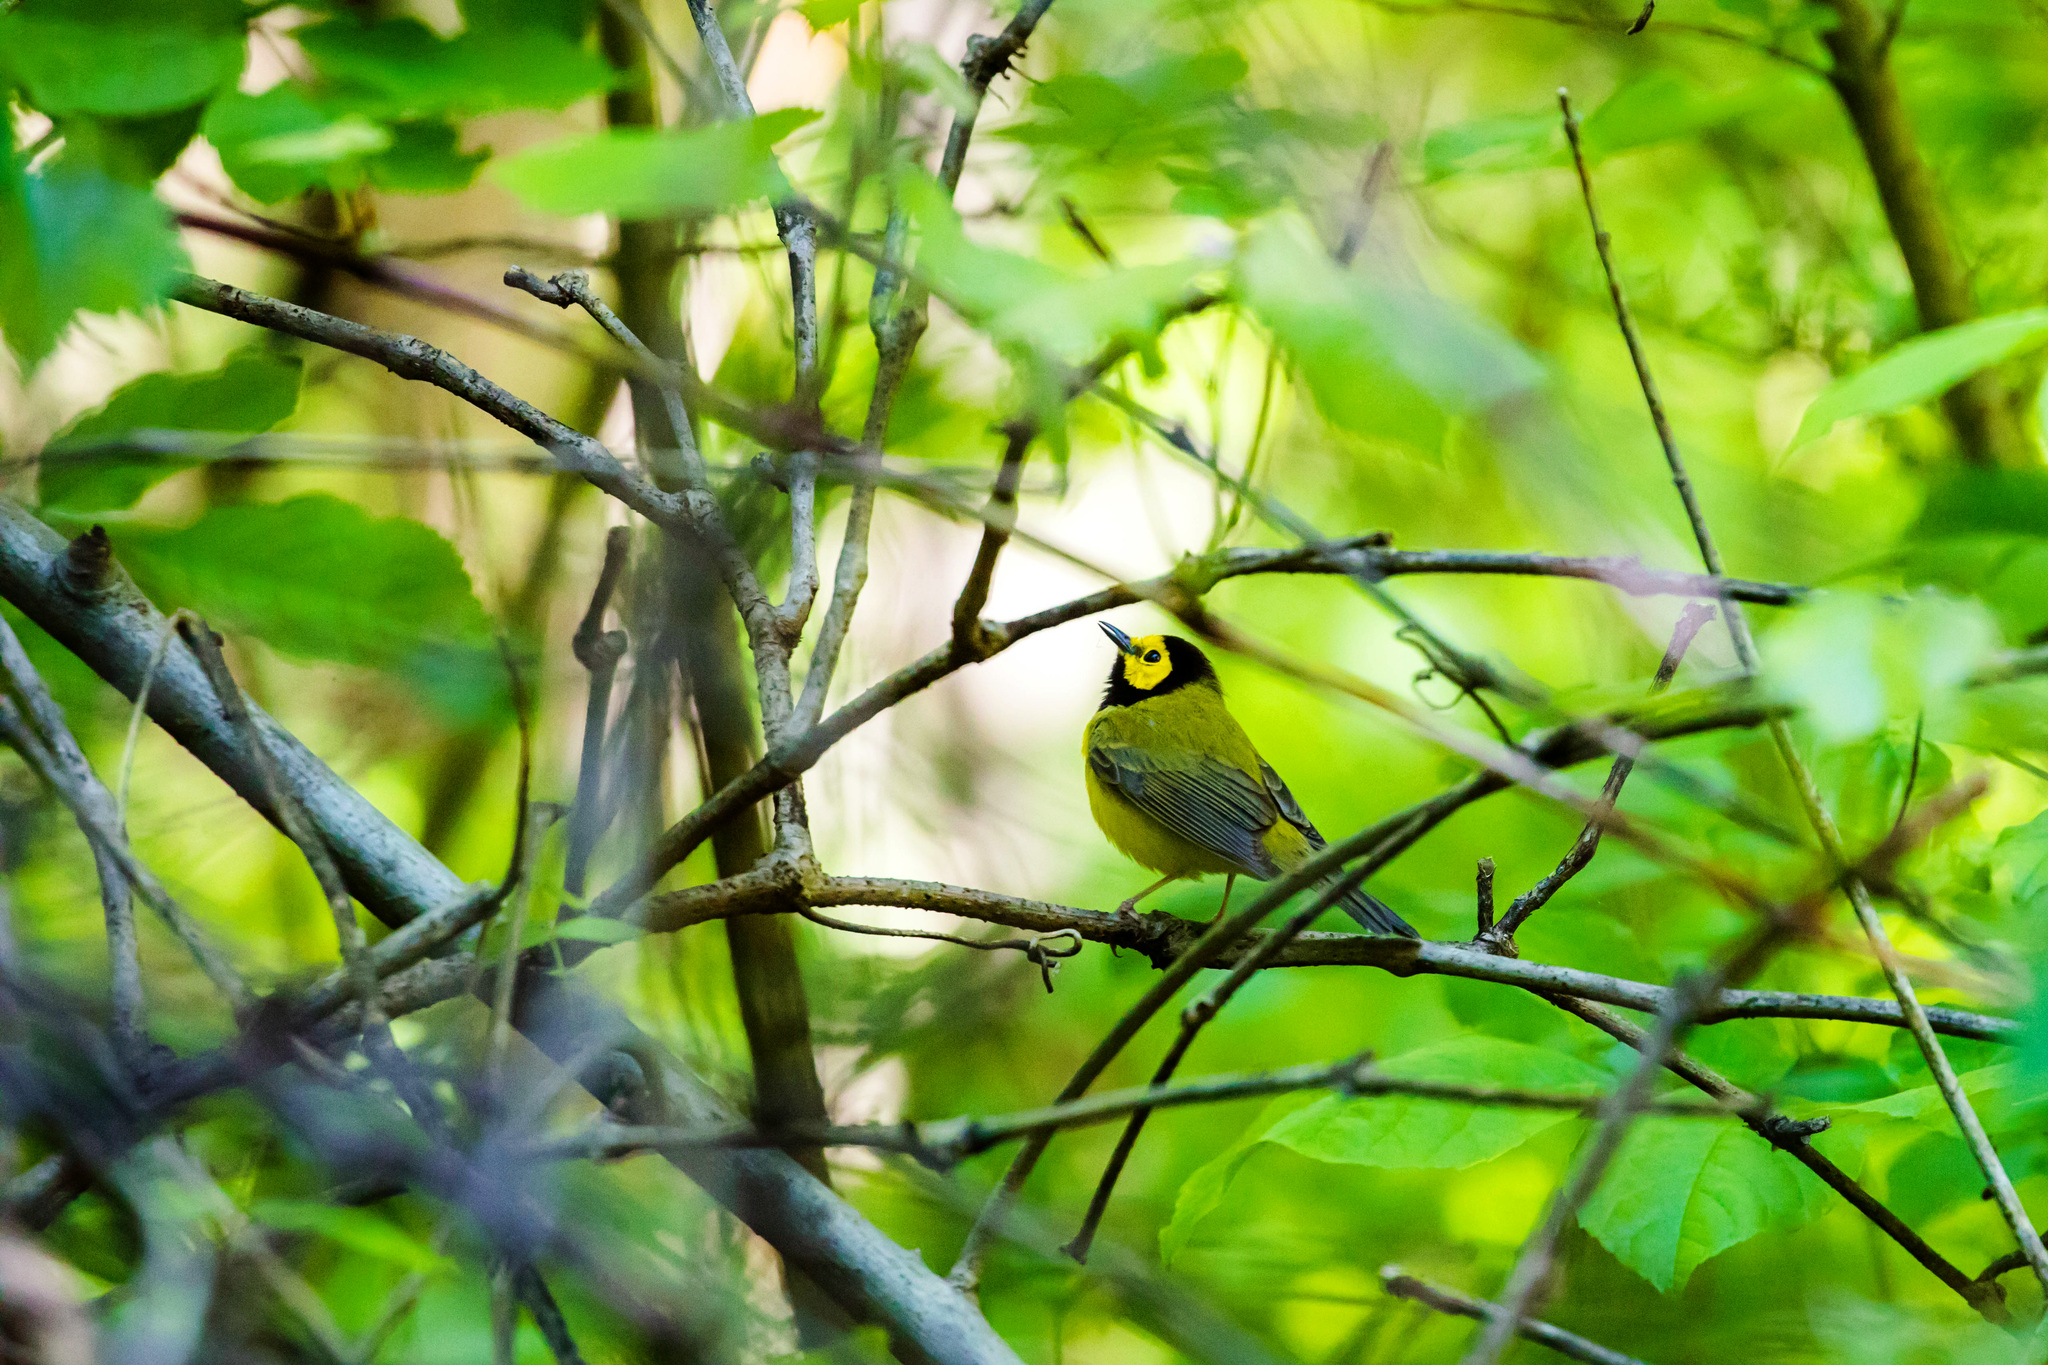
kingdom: Animalia
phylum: Chordata
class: Aves
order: Passeriformes
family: Parulidae
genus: Setophaga
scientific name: Setophaga citrina
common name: Hooded warbler
